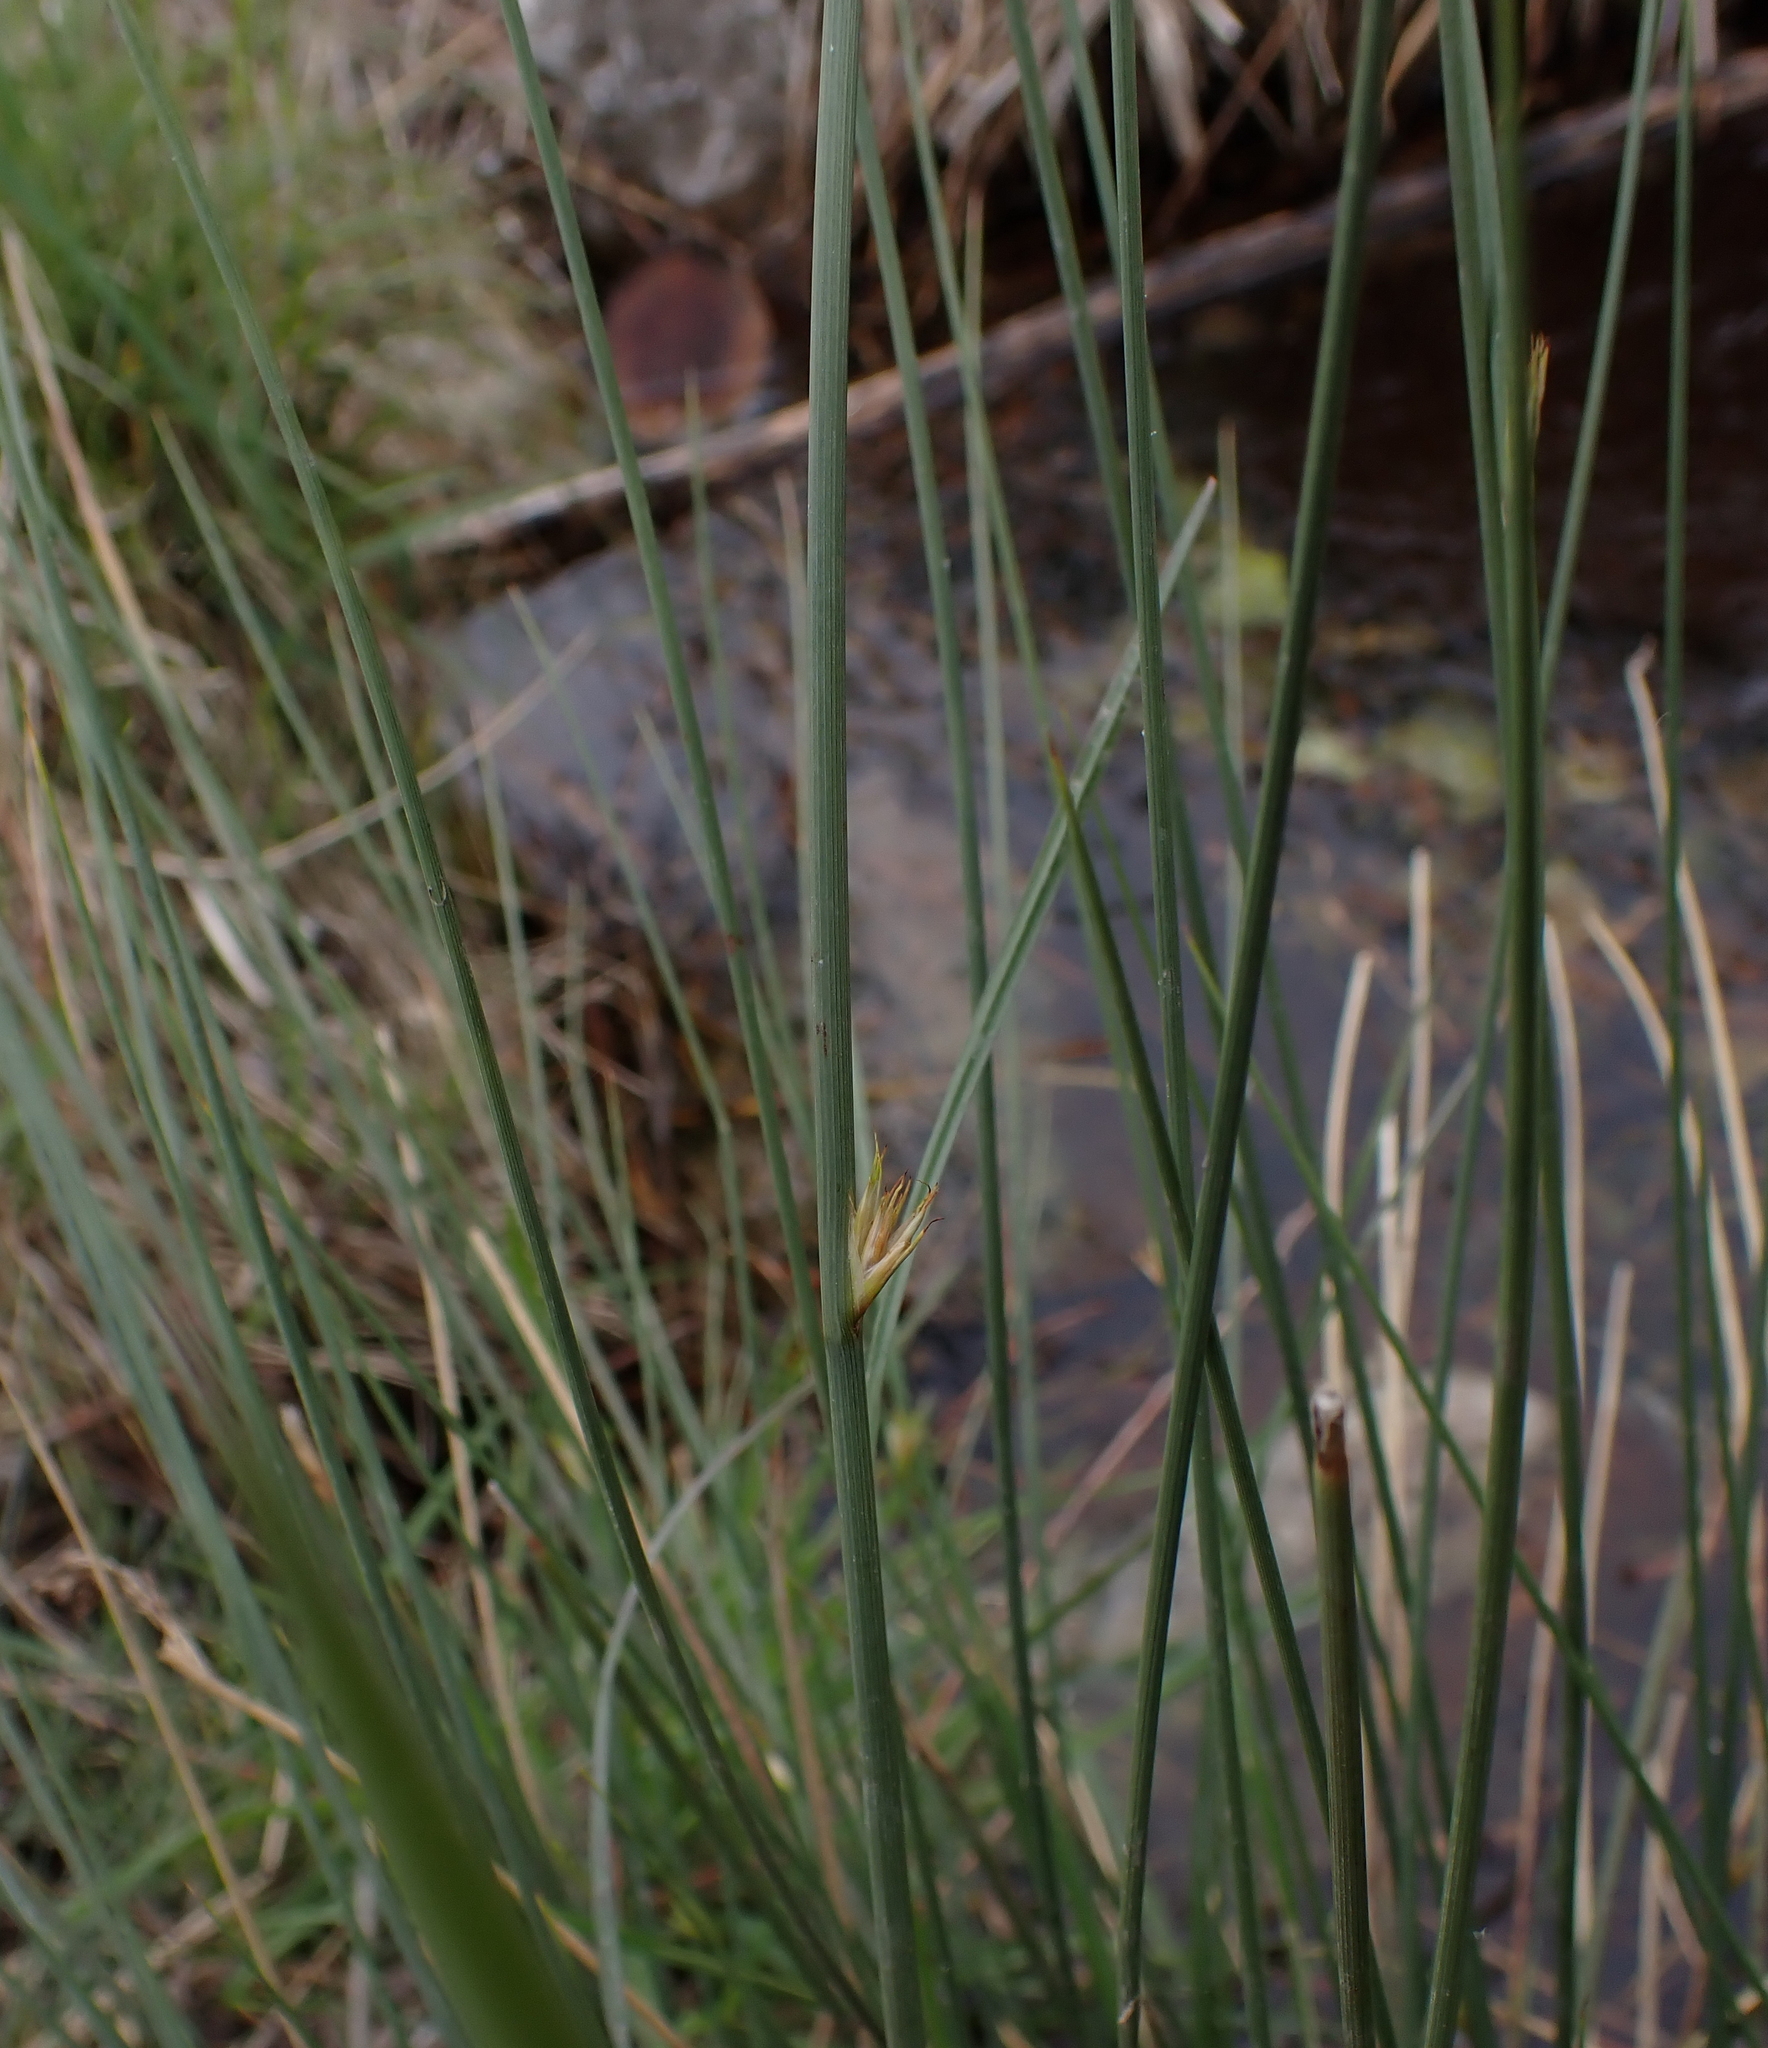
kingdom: Plantae
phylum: Tracheophyta
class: Liliopsida
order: Poales
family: Juncaceae
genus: Juncus
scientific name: Juncus inflexus
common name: Hard rush
